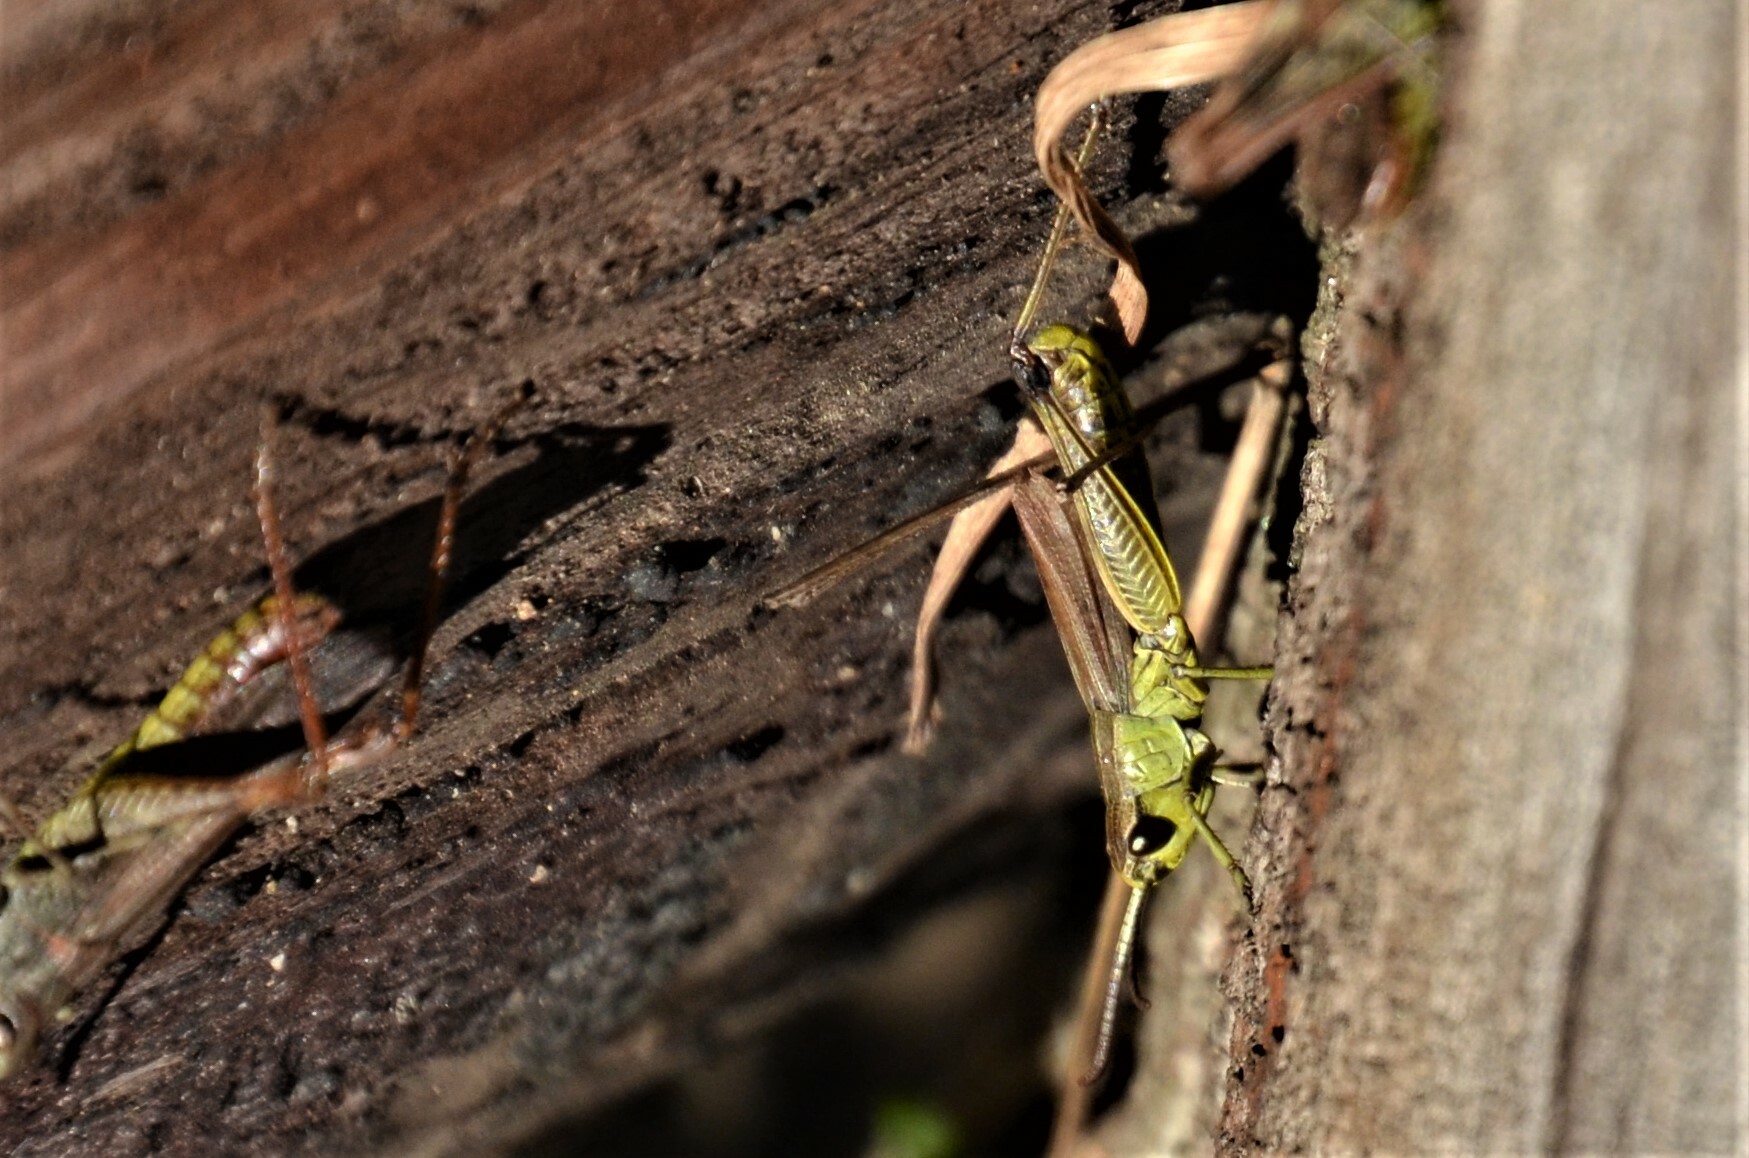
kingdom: Animalia
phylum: Arthropoda
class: Insecta
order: Orthoptera
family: Acrididae
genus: Pseudochorthippus
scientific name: Pseudochorthippus parallelus
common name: Meadow grasshopper
